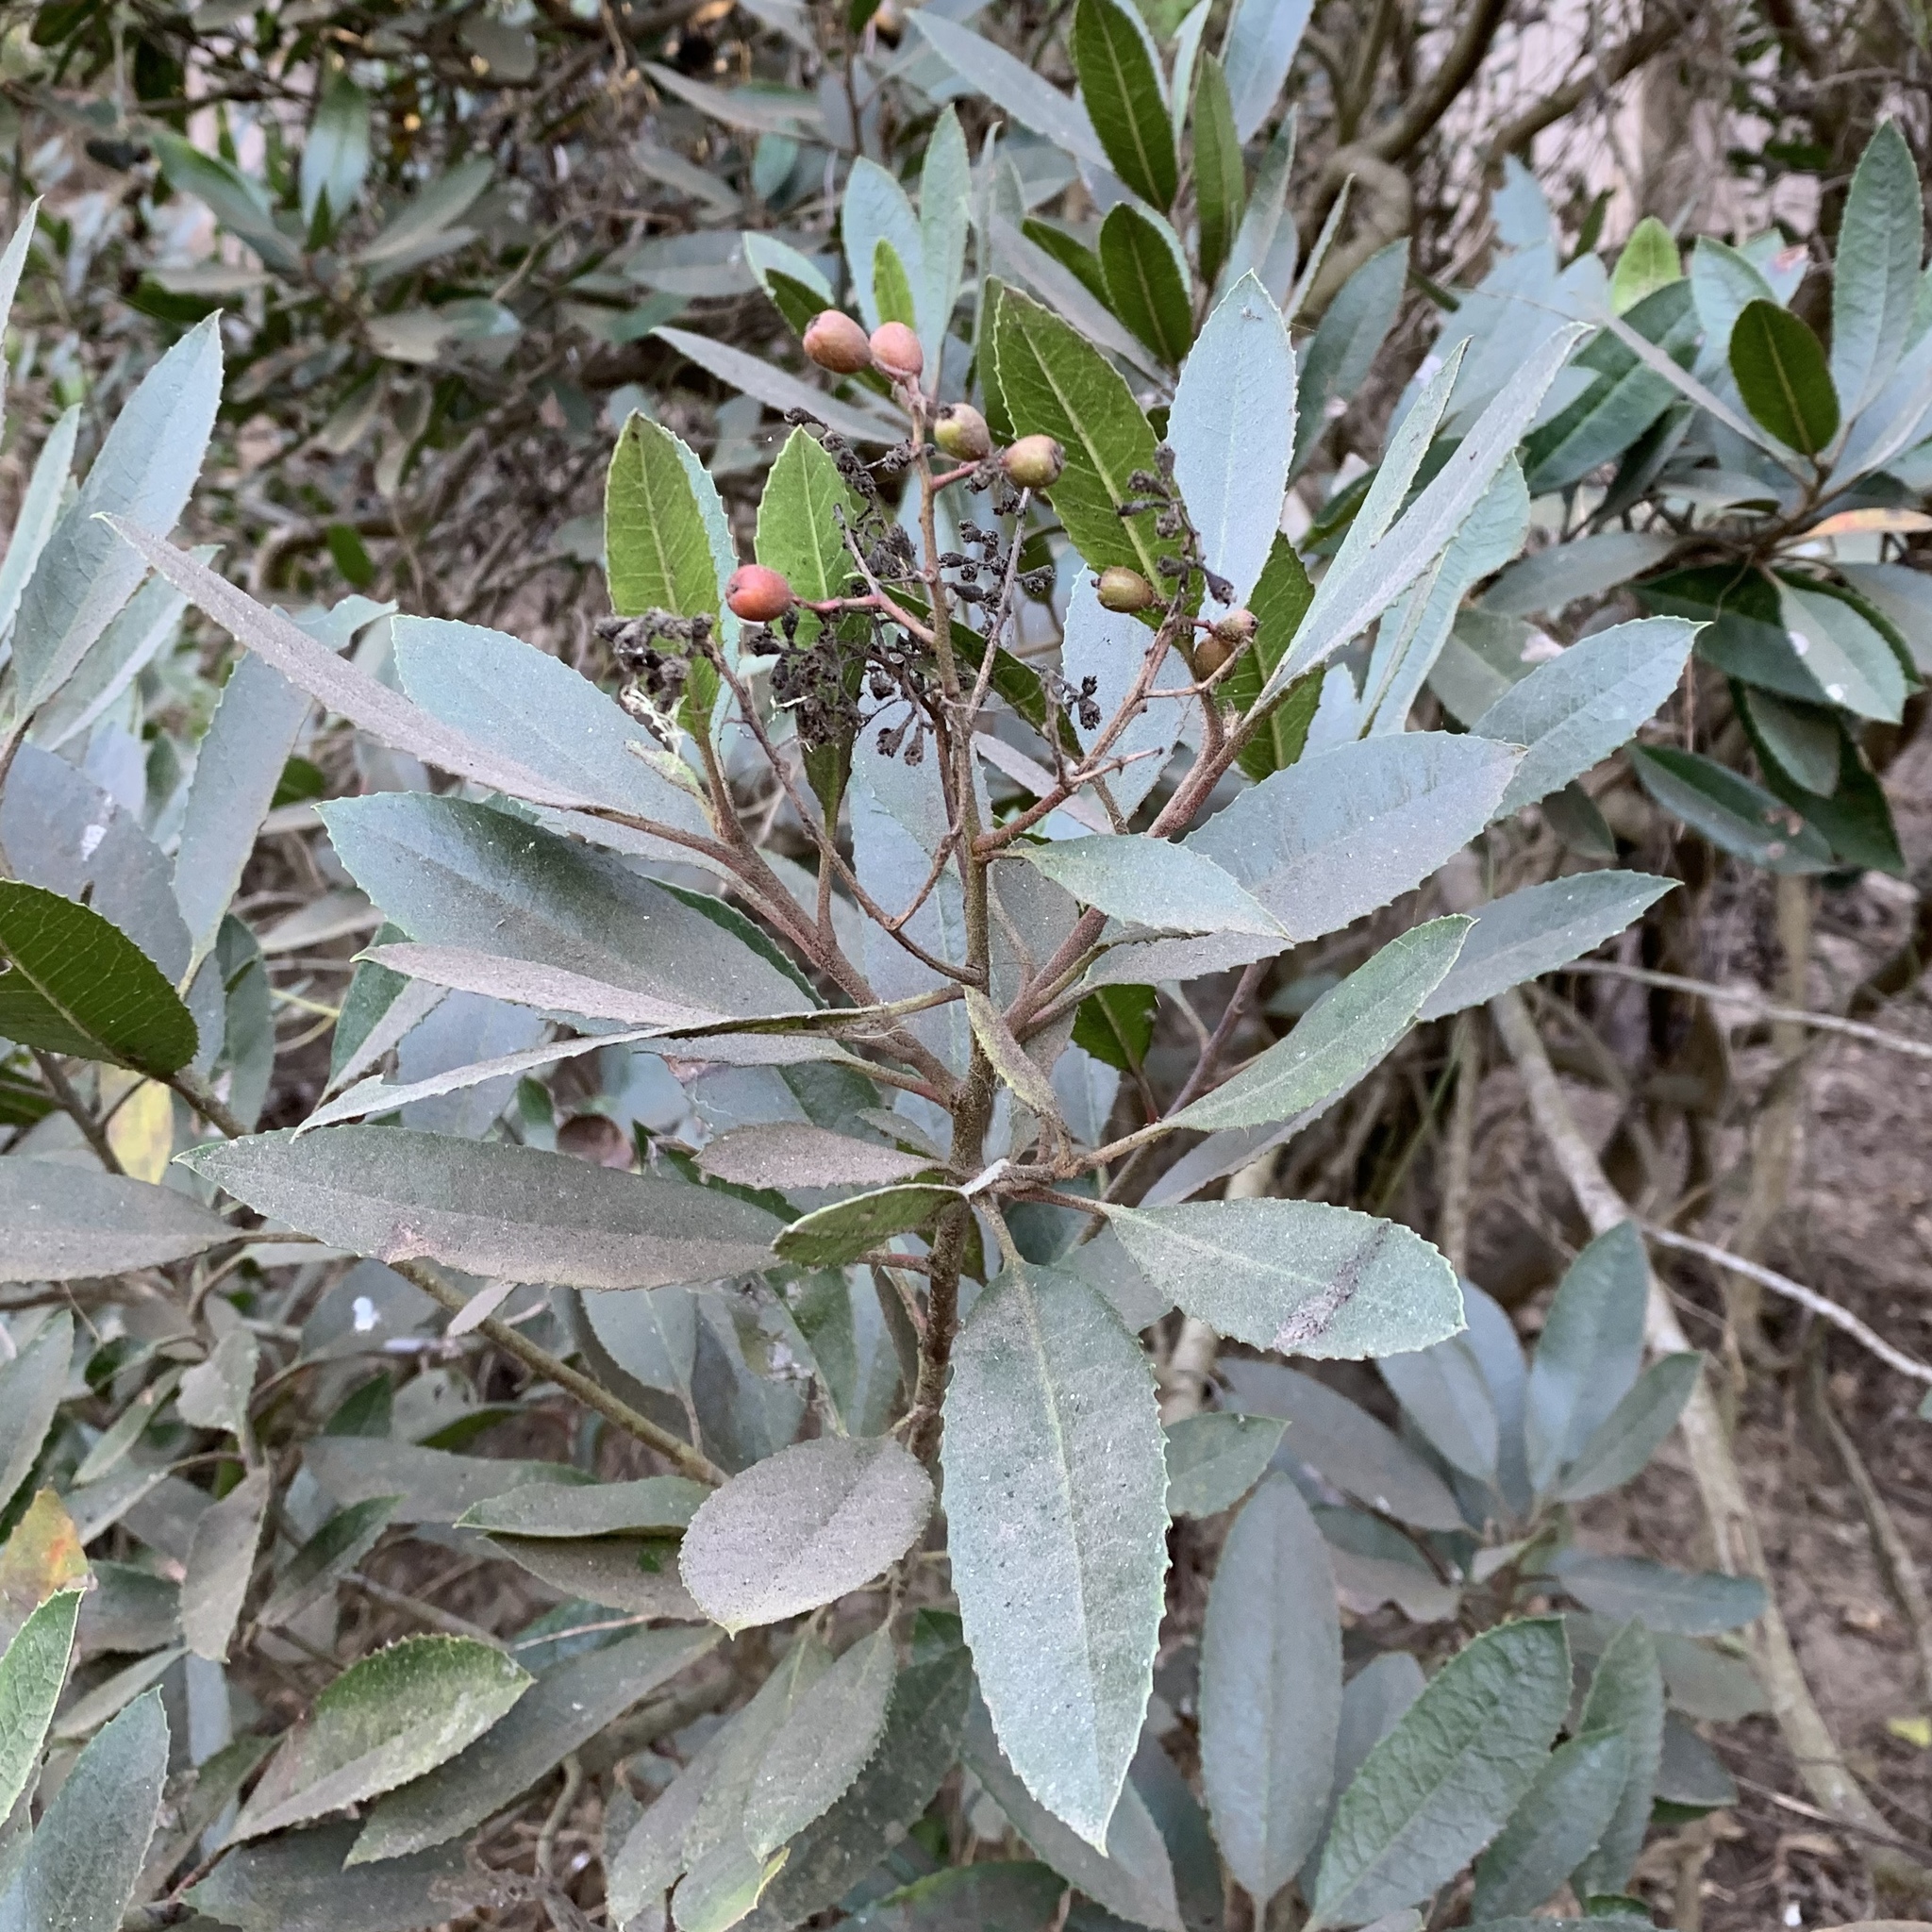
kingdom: Plantae
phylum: Tracheophyta
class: Magnoliopsida
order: Rosales
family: Rosaceae
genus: Heteromeles
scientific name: Heteromeles arbutifolia
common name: California-holly
